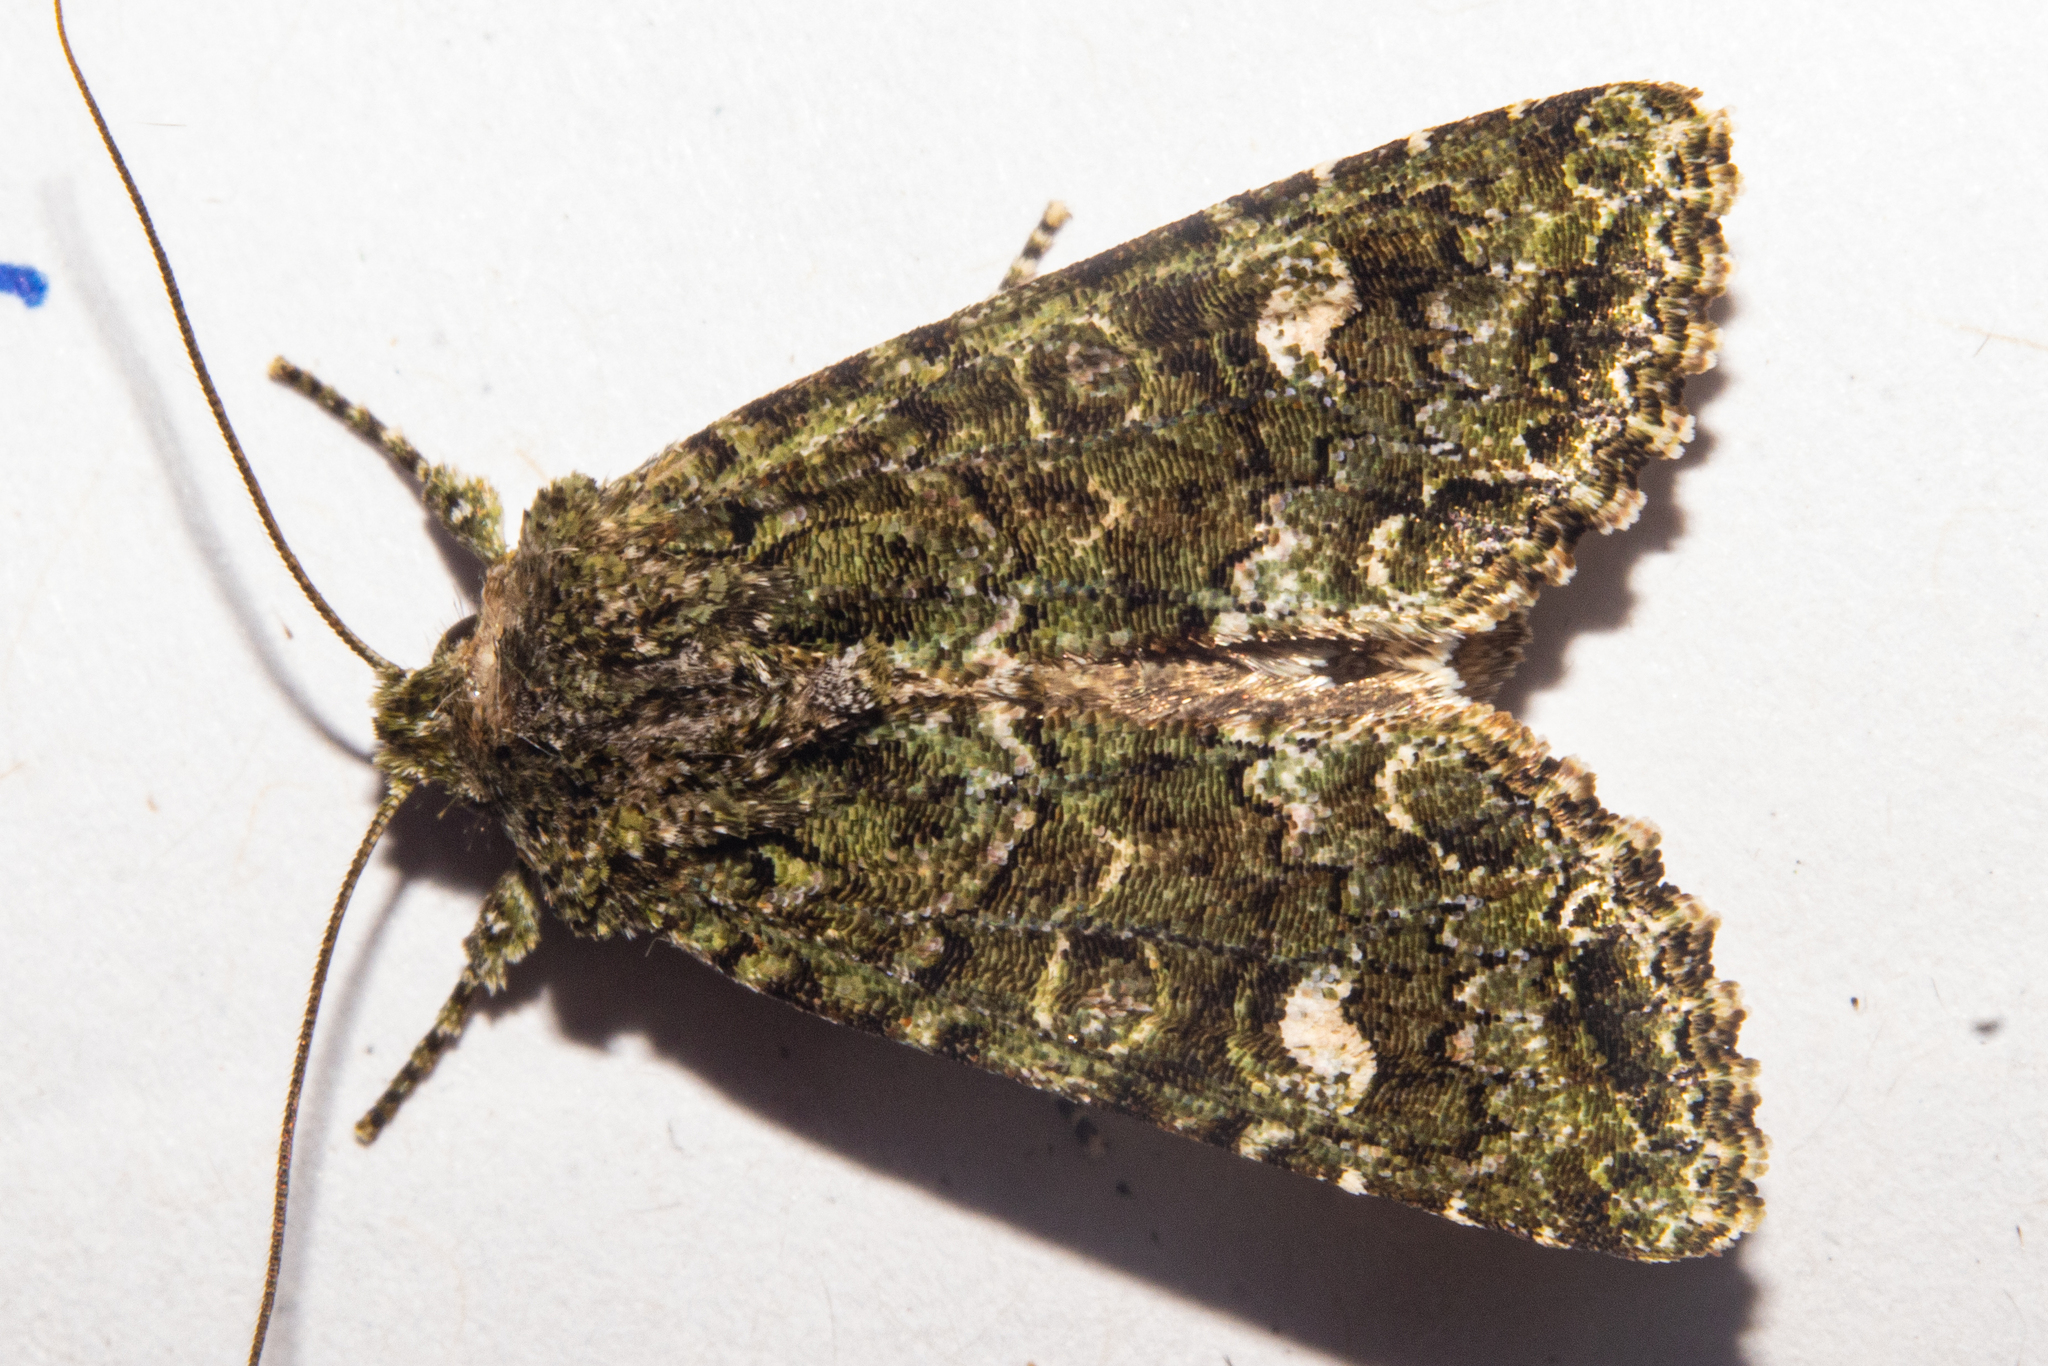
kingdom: Animalia
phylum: Arthropoda
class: Insecta
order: Lepidoptera
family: Noctuidae
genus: Ichneutica
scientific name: Ichneutica
